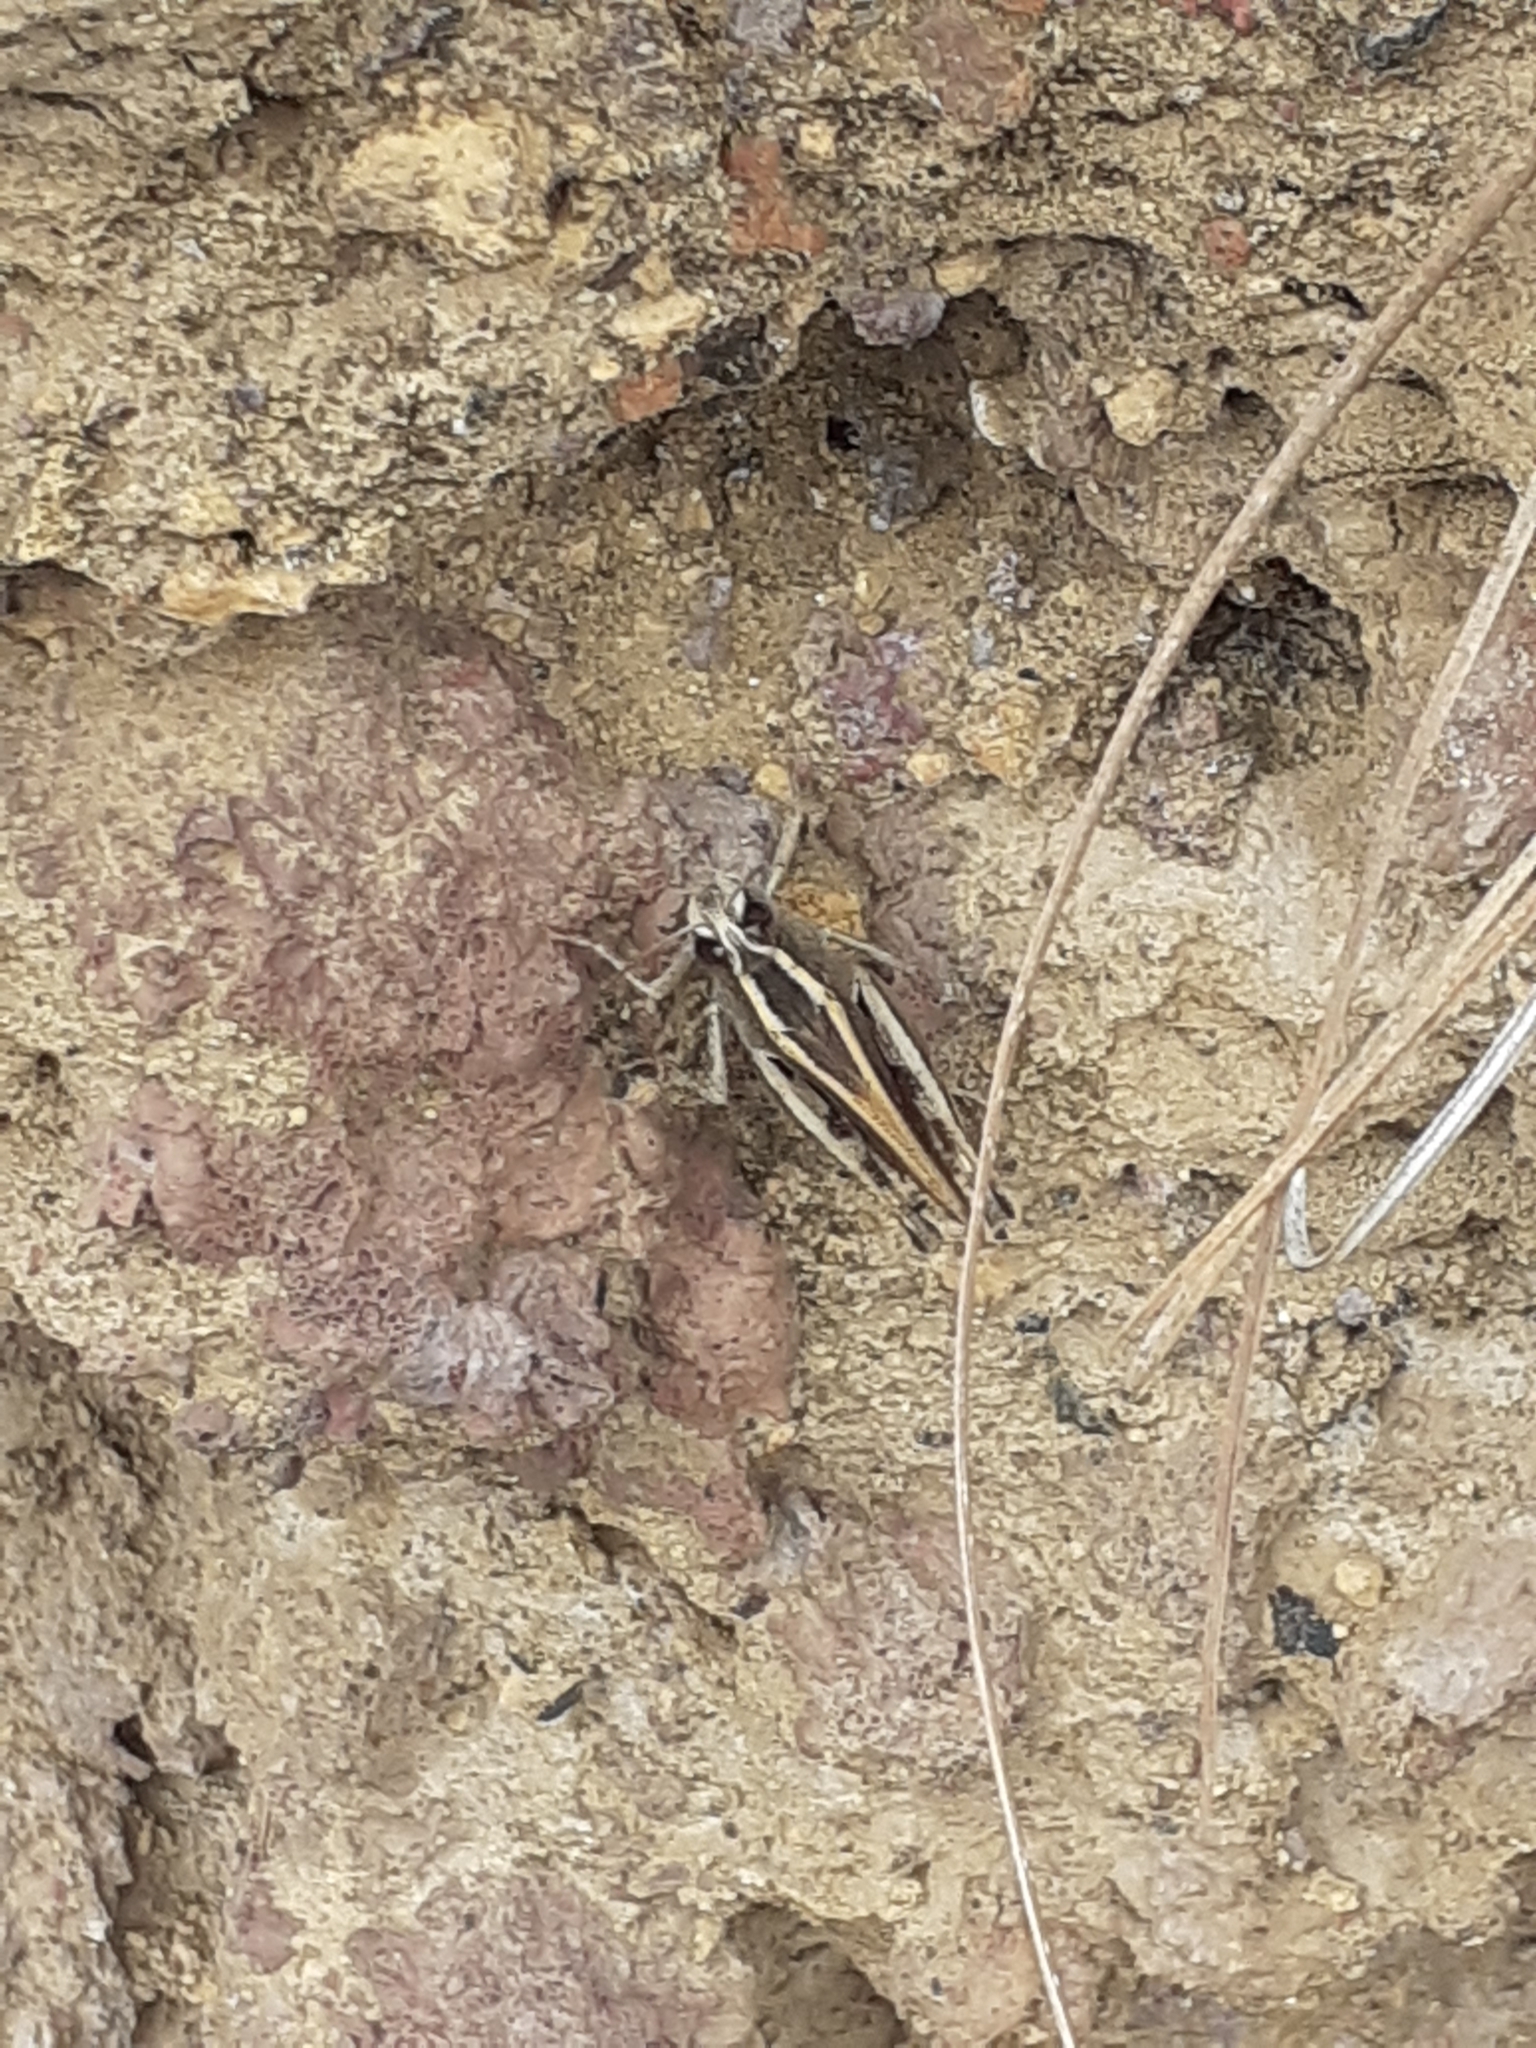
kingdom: Animalia
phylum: Arthropoda
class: Insecta
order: Orthoptera
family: Acrididae
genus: Calliptamus
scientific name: Calliptamus plebeius
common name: Canarian pincer grasshopper
